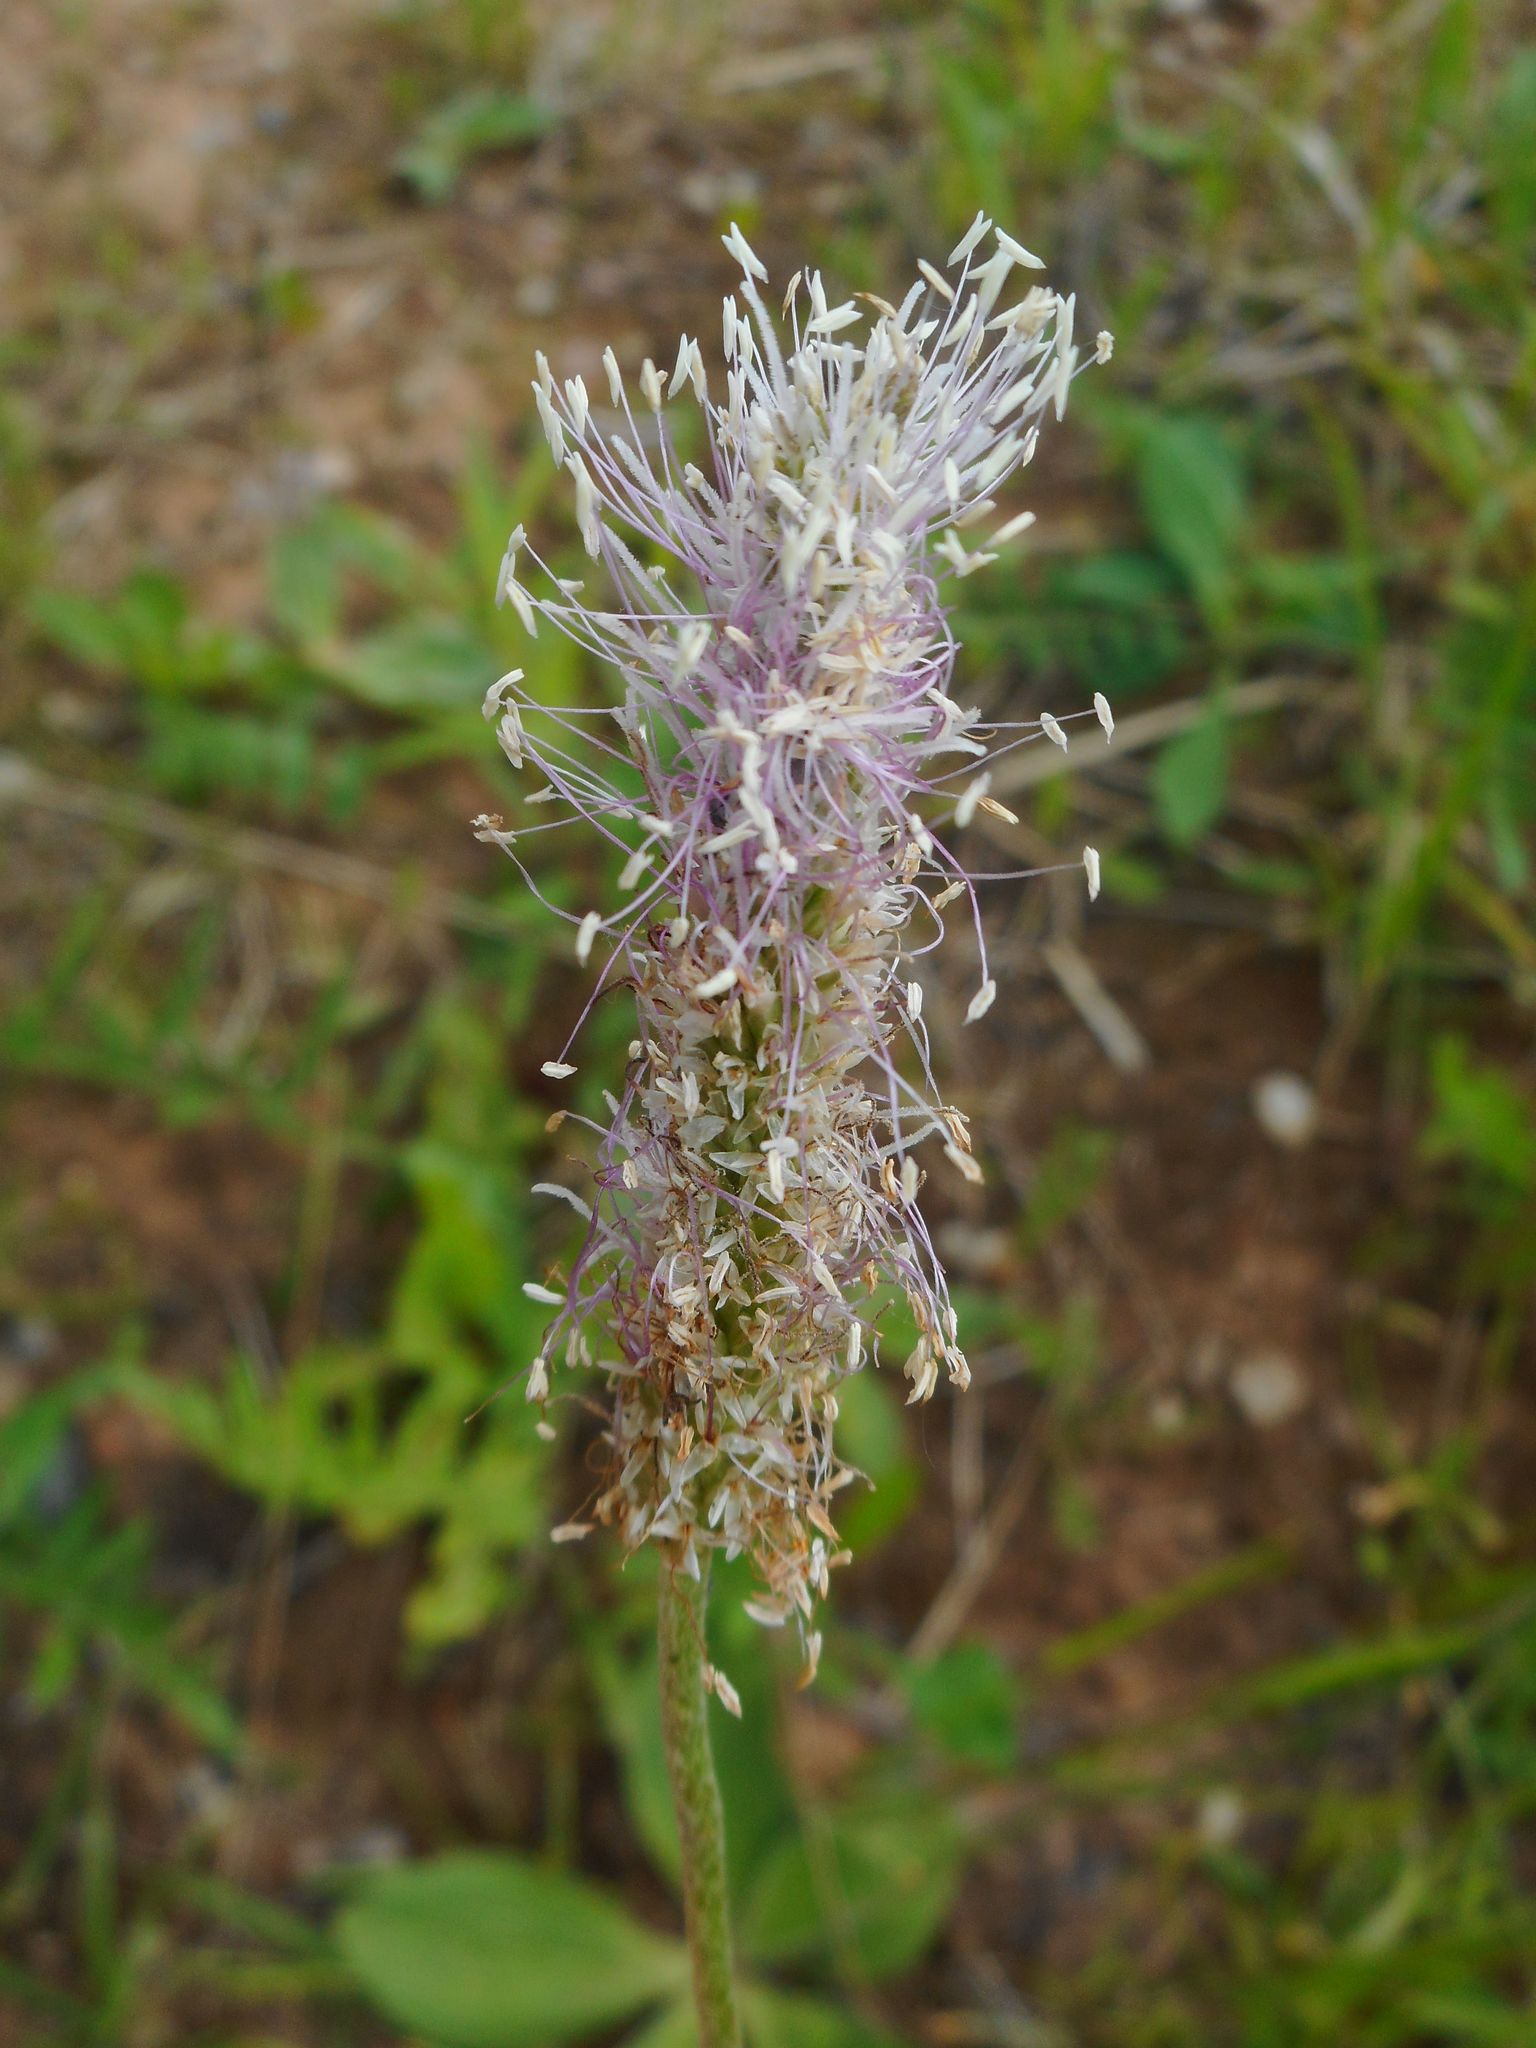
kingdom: Plantae
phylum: Tracheophyta
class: Magnoliopsida
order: Lamiales
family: Plantaginaceae
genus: Plantago
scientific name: Plantago media
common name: Hoary plantain
